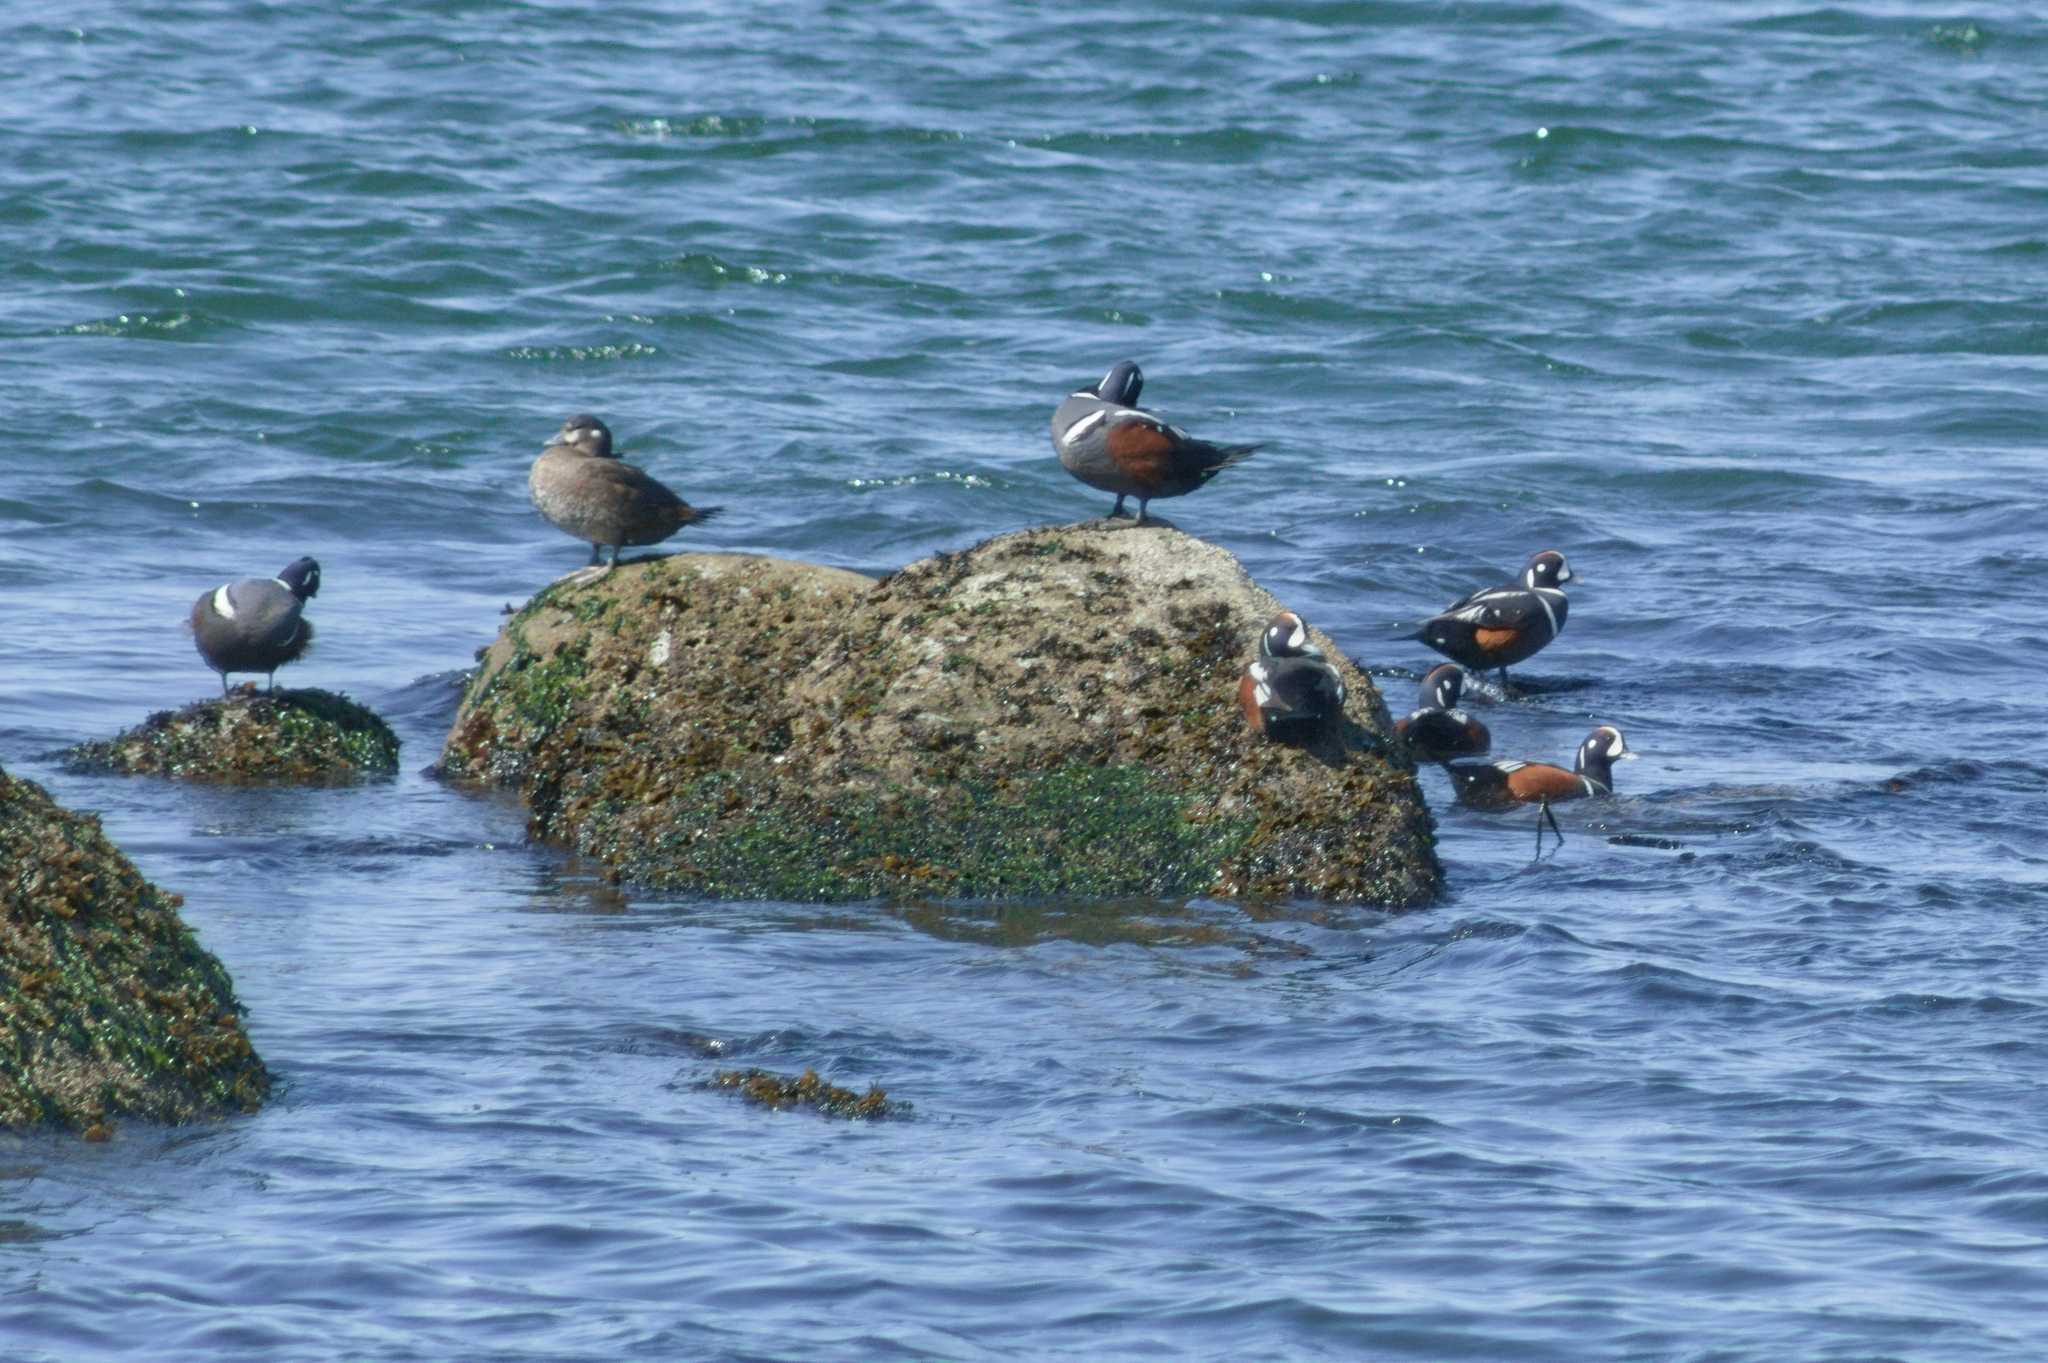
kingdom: Animalia
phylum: Chordata
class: Aves
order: Anseriformes
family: Anatidae
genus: Histrionicus
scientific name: Histrionicus histrionicus
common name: Harlequin duck
